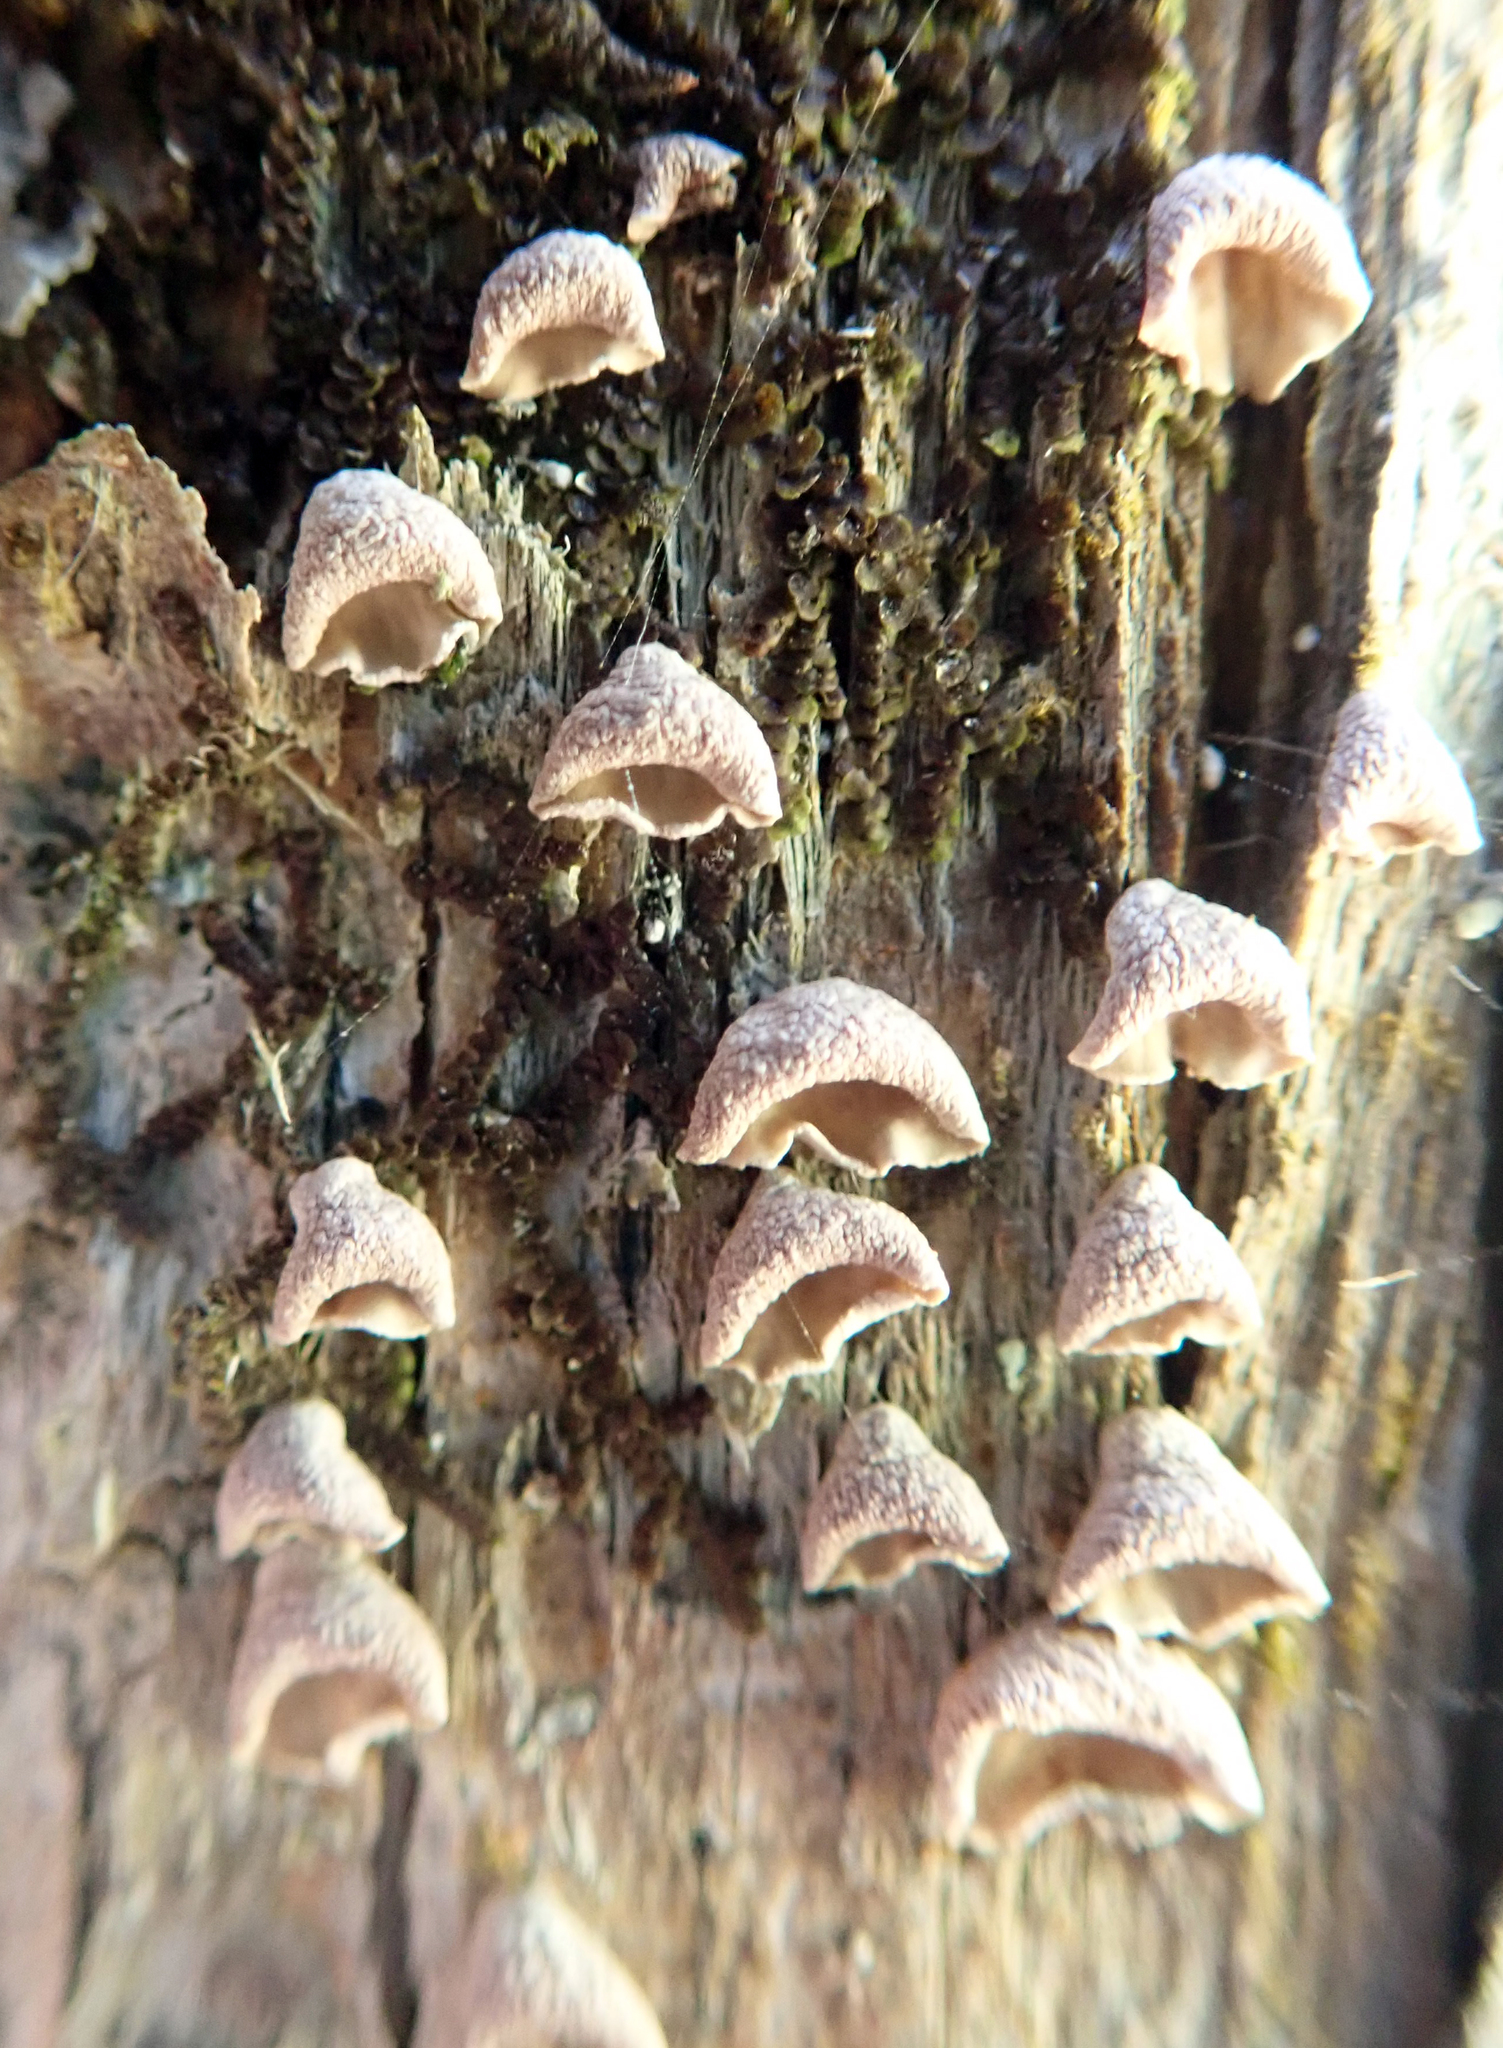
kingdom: Fungi
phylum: Basidiomycota
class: Agaricomycetes
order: Agaricales
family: Marasmiaceae
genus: Calyptella
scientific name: Calyptella totara
